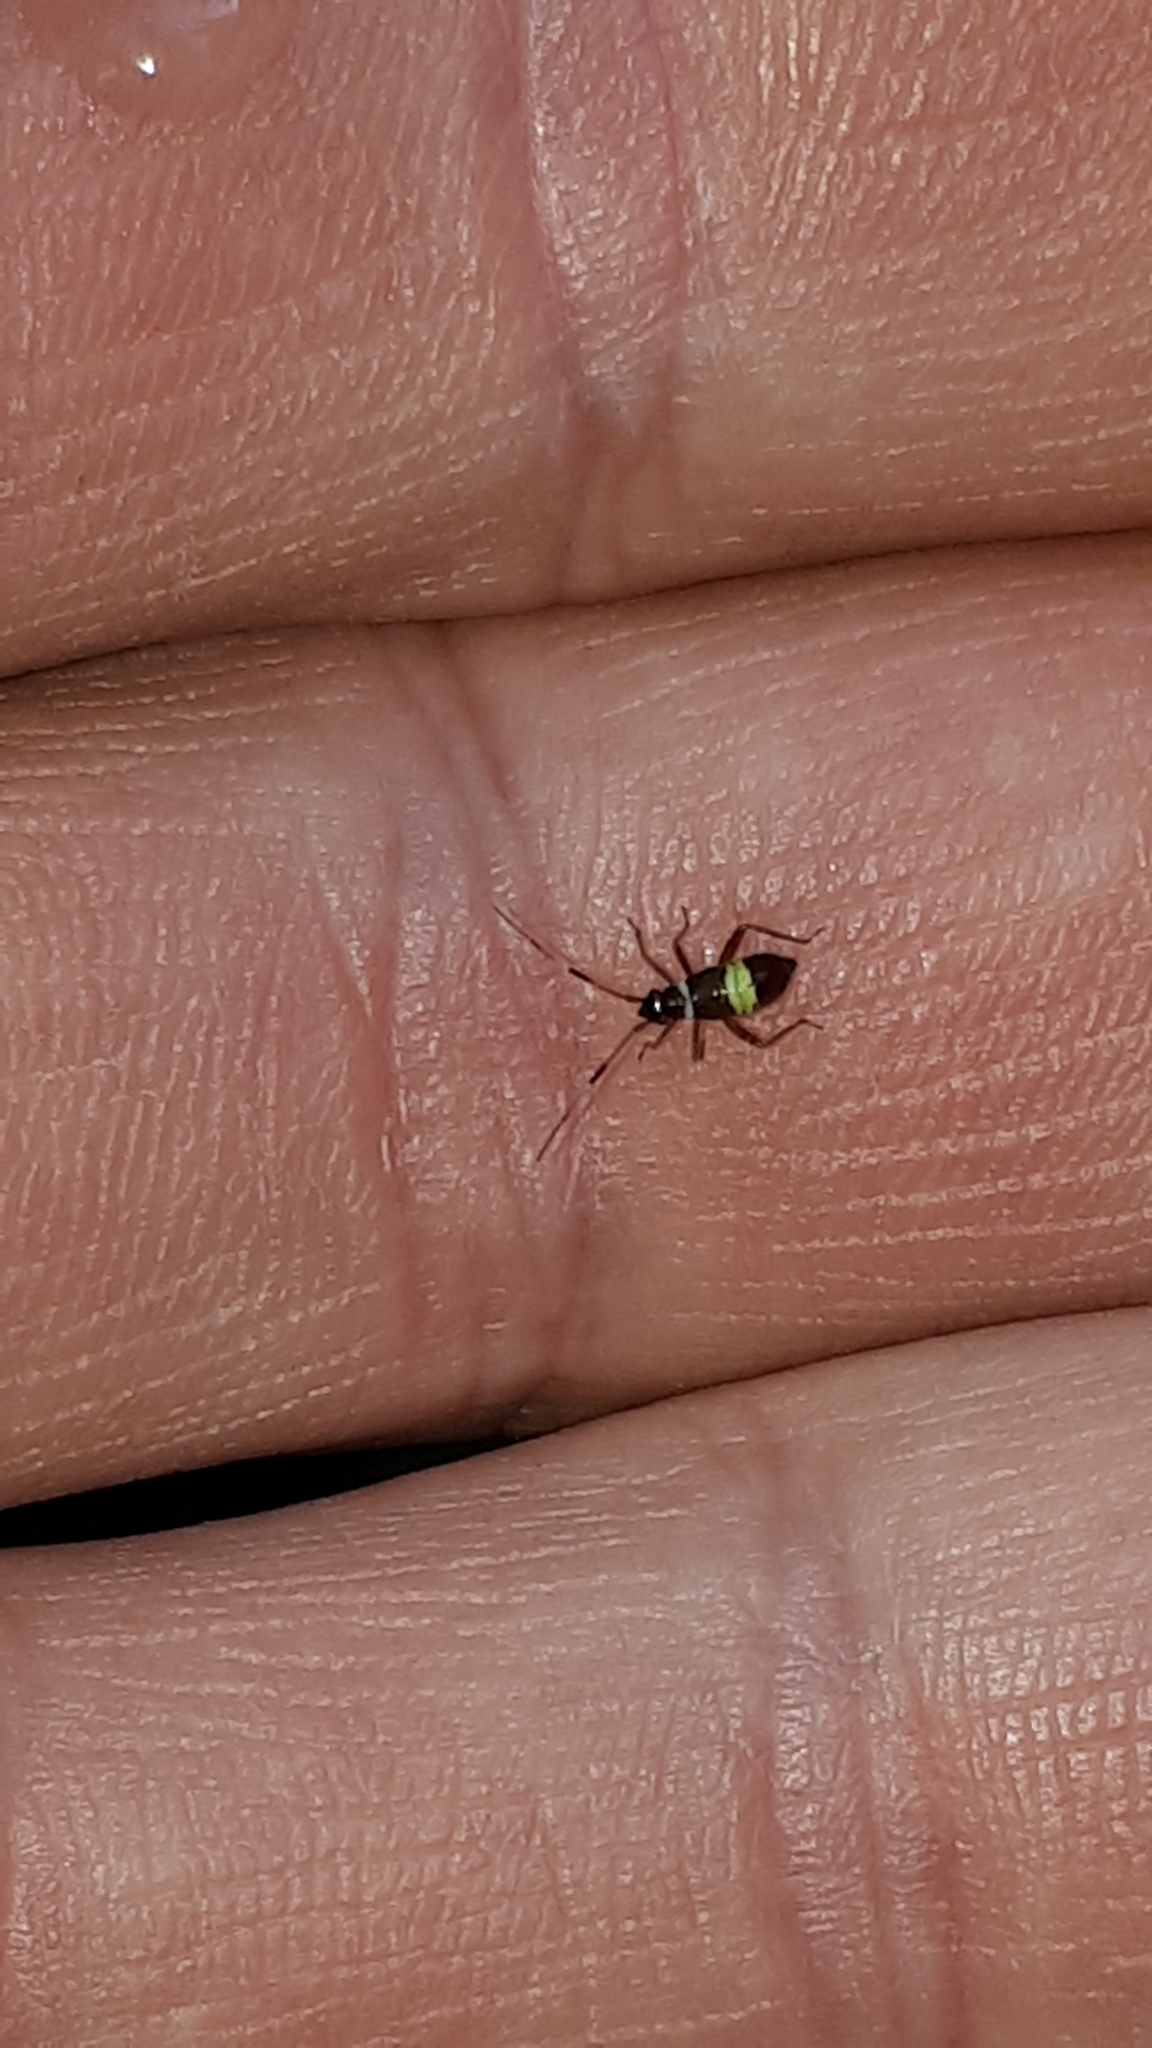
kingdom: Animalia
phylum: Arthropoda
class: Insecta
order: Hemiptera
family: Miridae
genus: Closterotomus
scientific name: Closterotomus biclavatus
